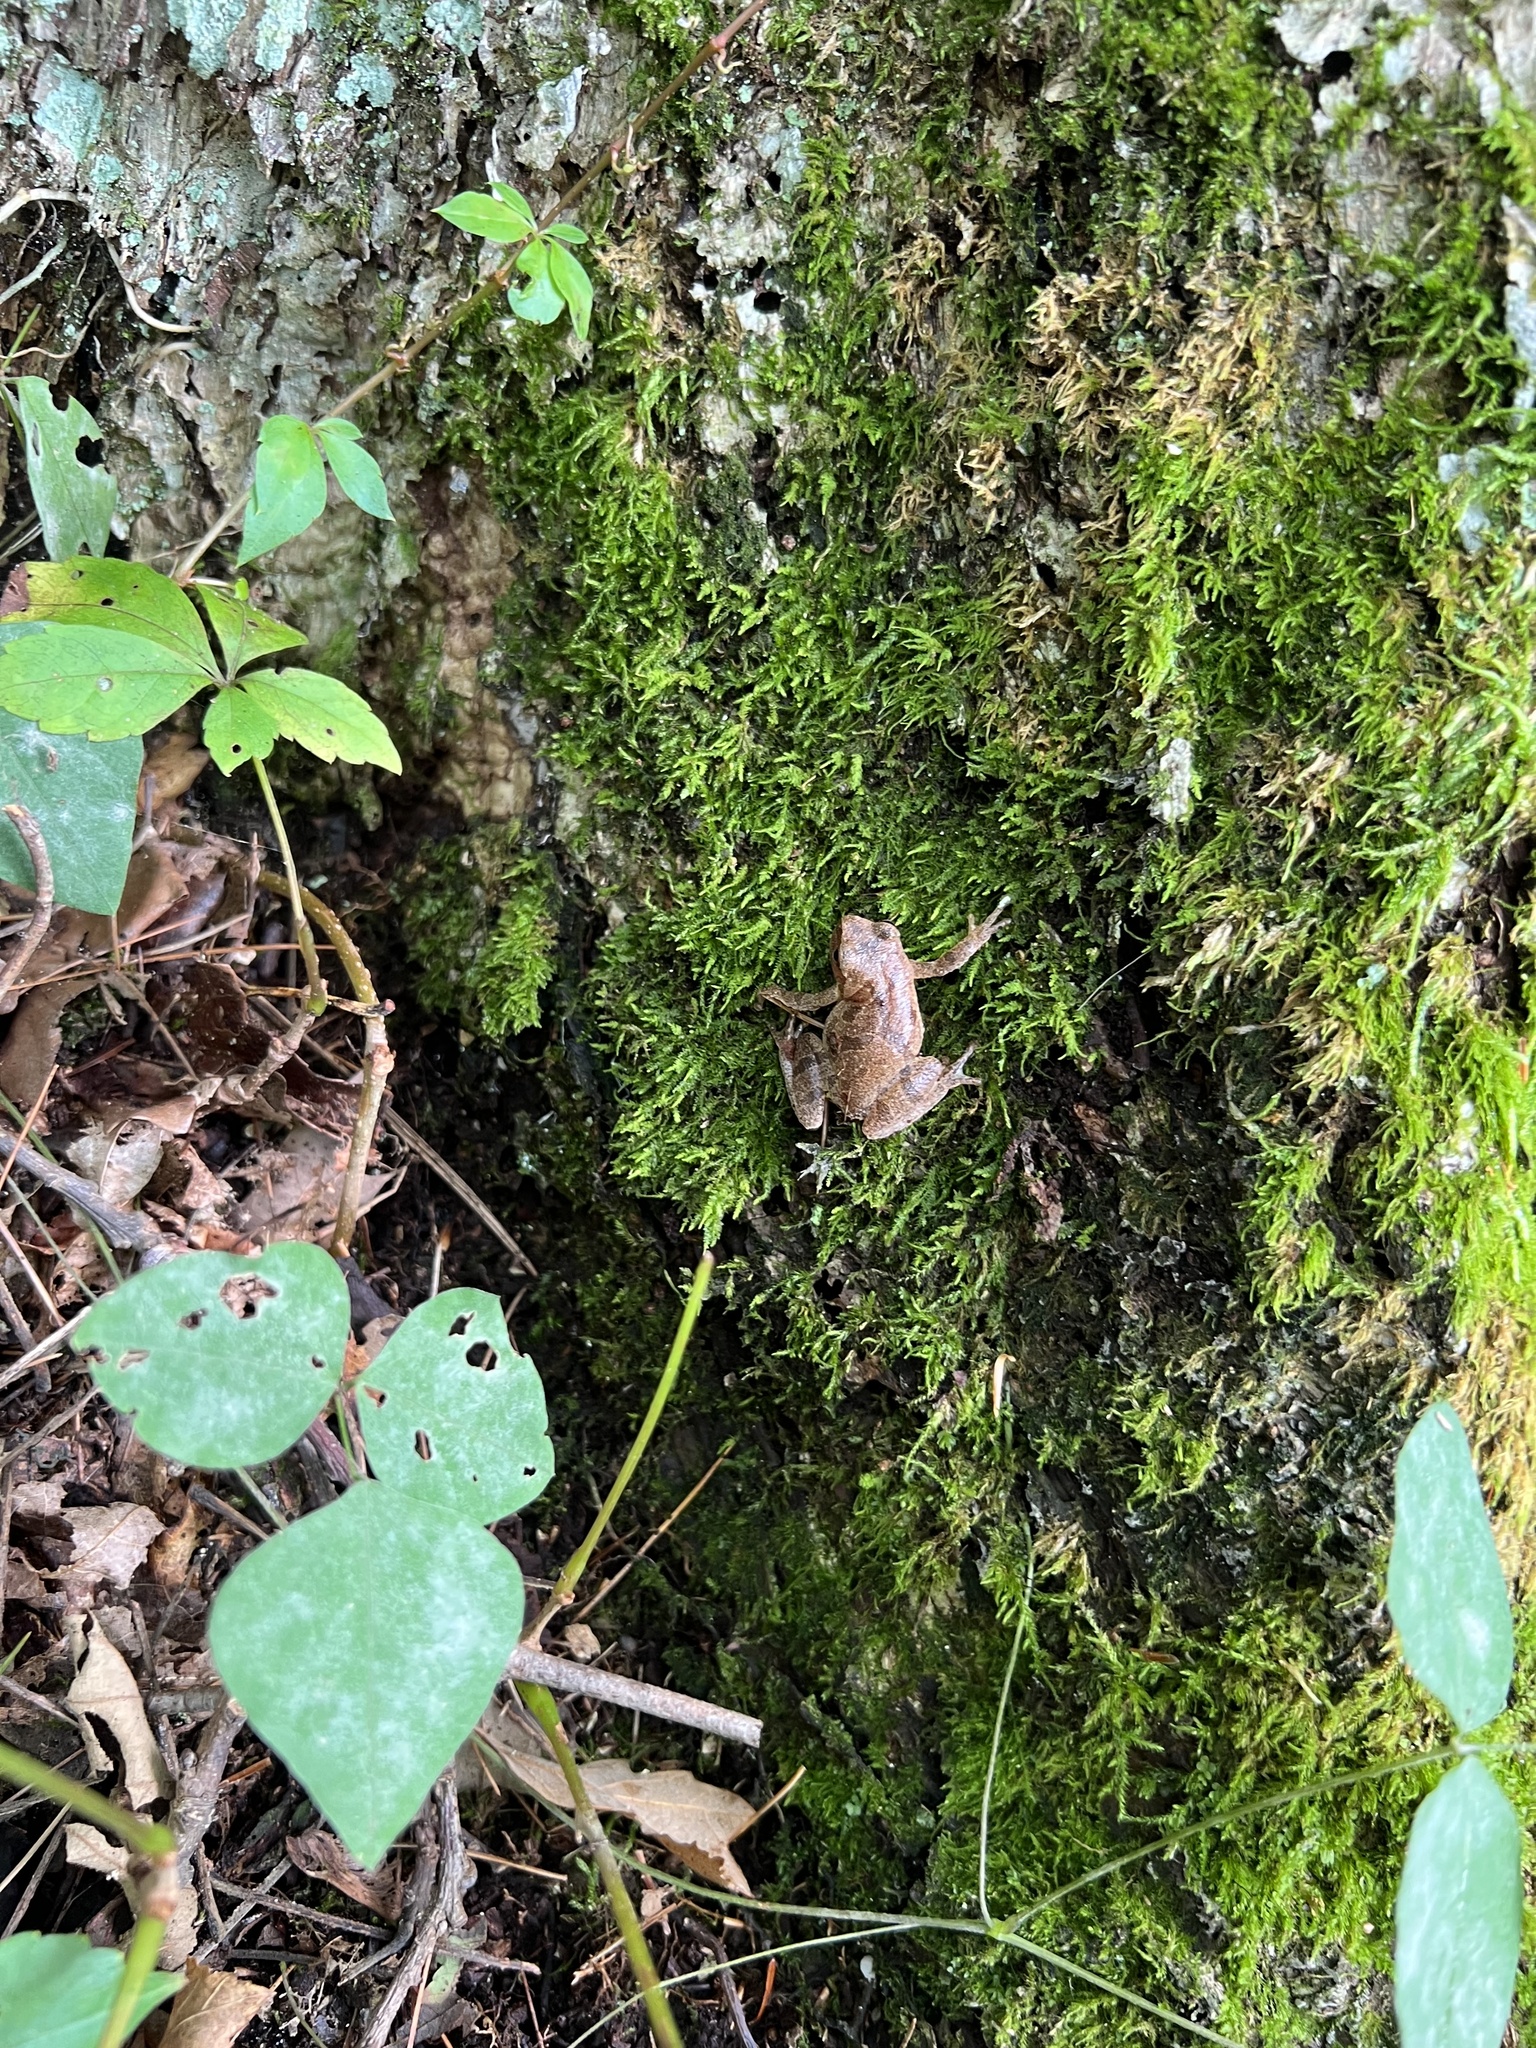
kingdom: Animalia
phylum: Chordata
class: Amphibia
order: Anura
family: Hylidae
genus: Pseudacris
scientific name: Pseudacris crucifer
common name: Spring peeper
